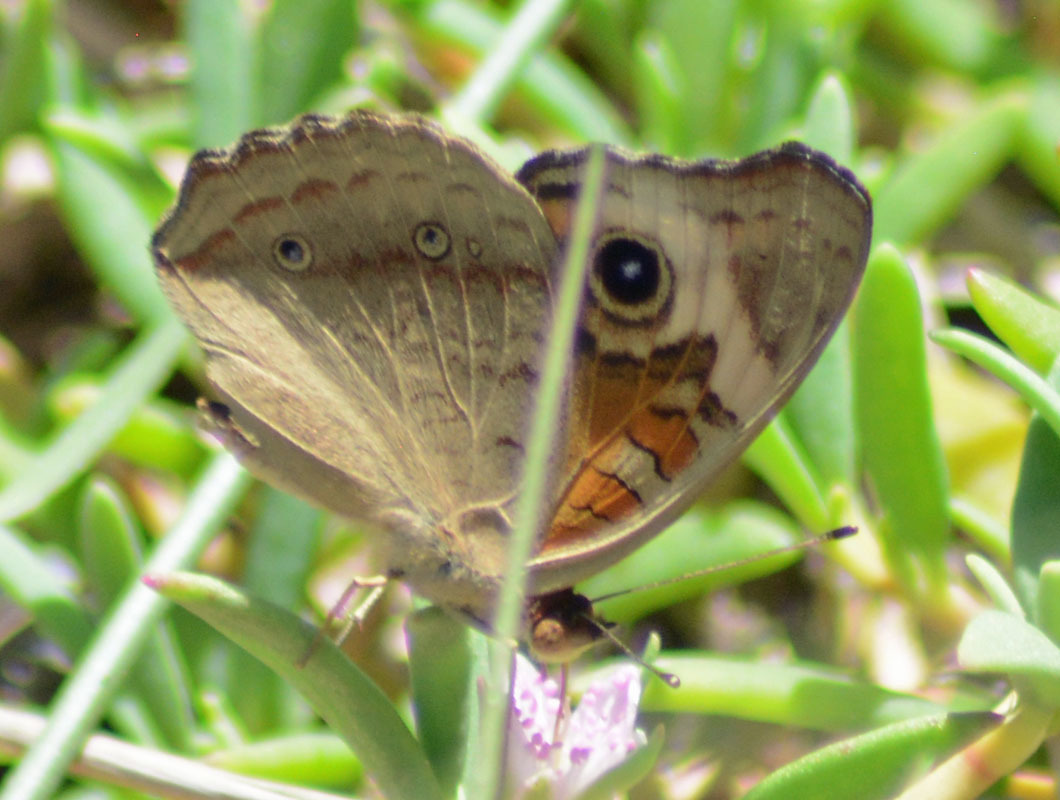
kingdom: Animalia
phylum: Arthropoda
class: Insecta
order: Lepidoptera
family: Nymphalidae
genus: Junonia
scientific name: Junonia coenia
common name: Common buckeye
